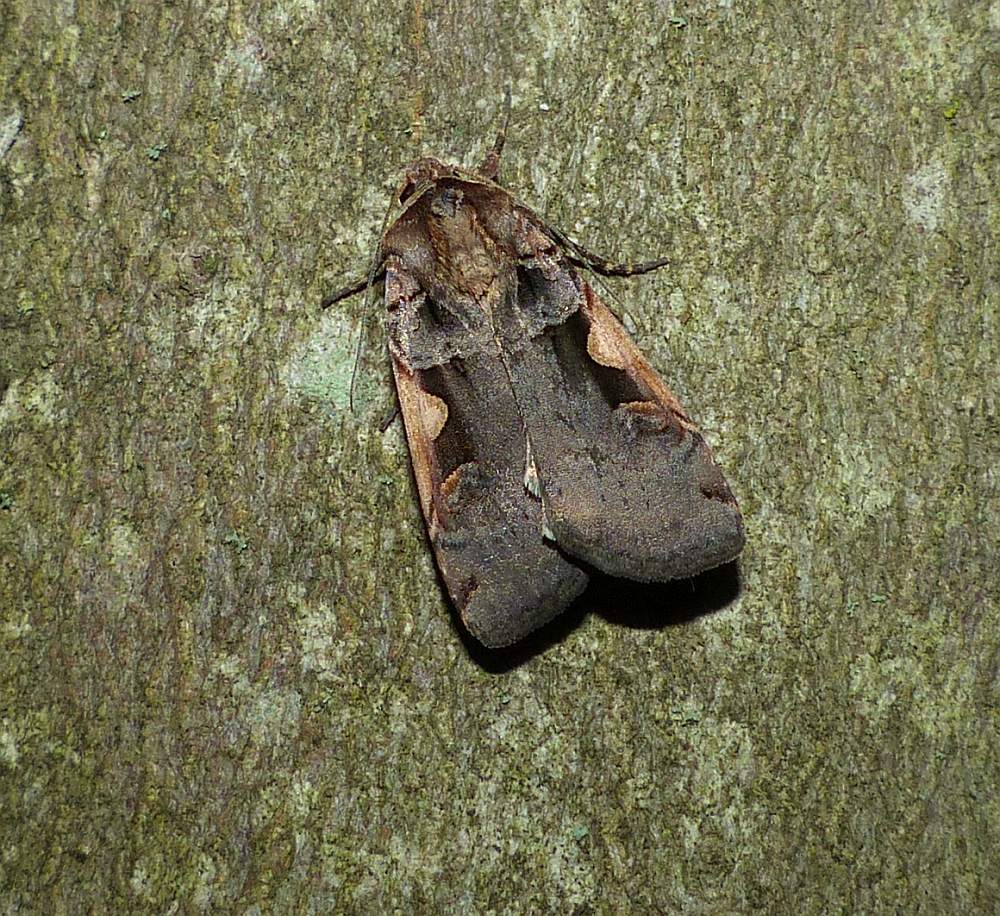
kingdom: Animalia
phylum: Arthropoda
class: Insecta
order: Lepidoptera
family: Noctuidae
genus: Xestia
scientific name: Xestia
